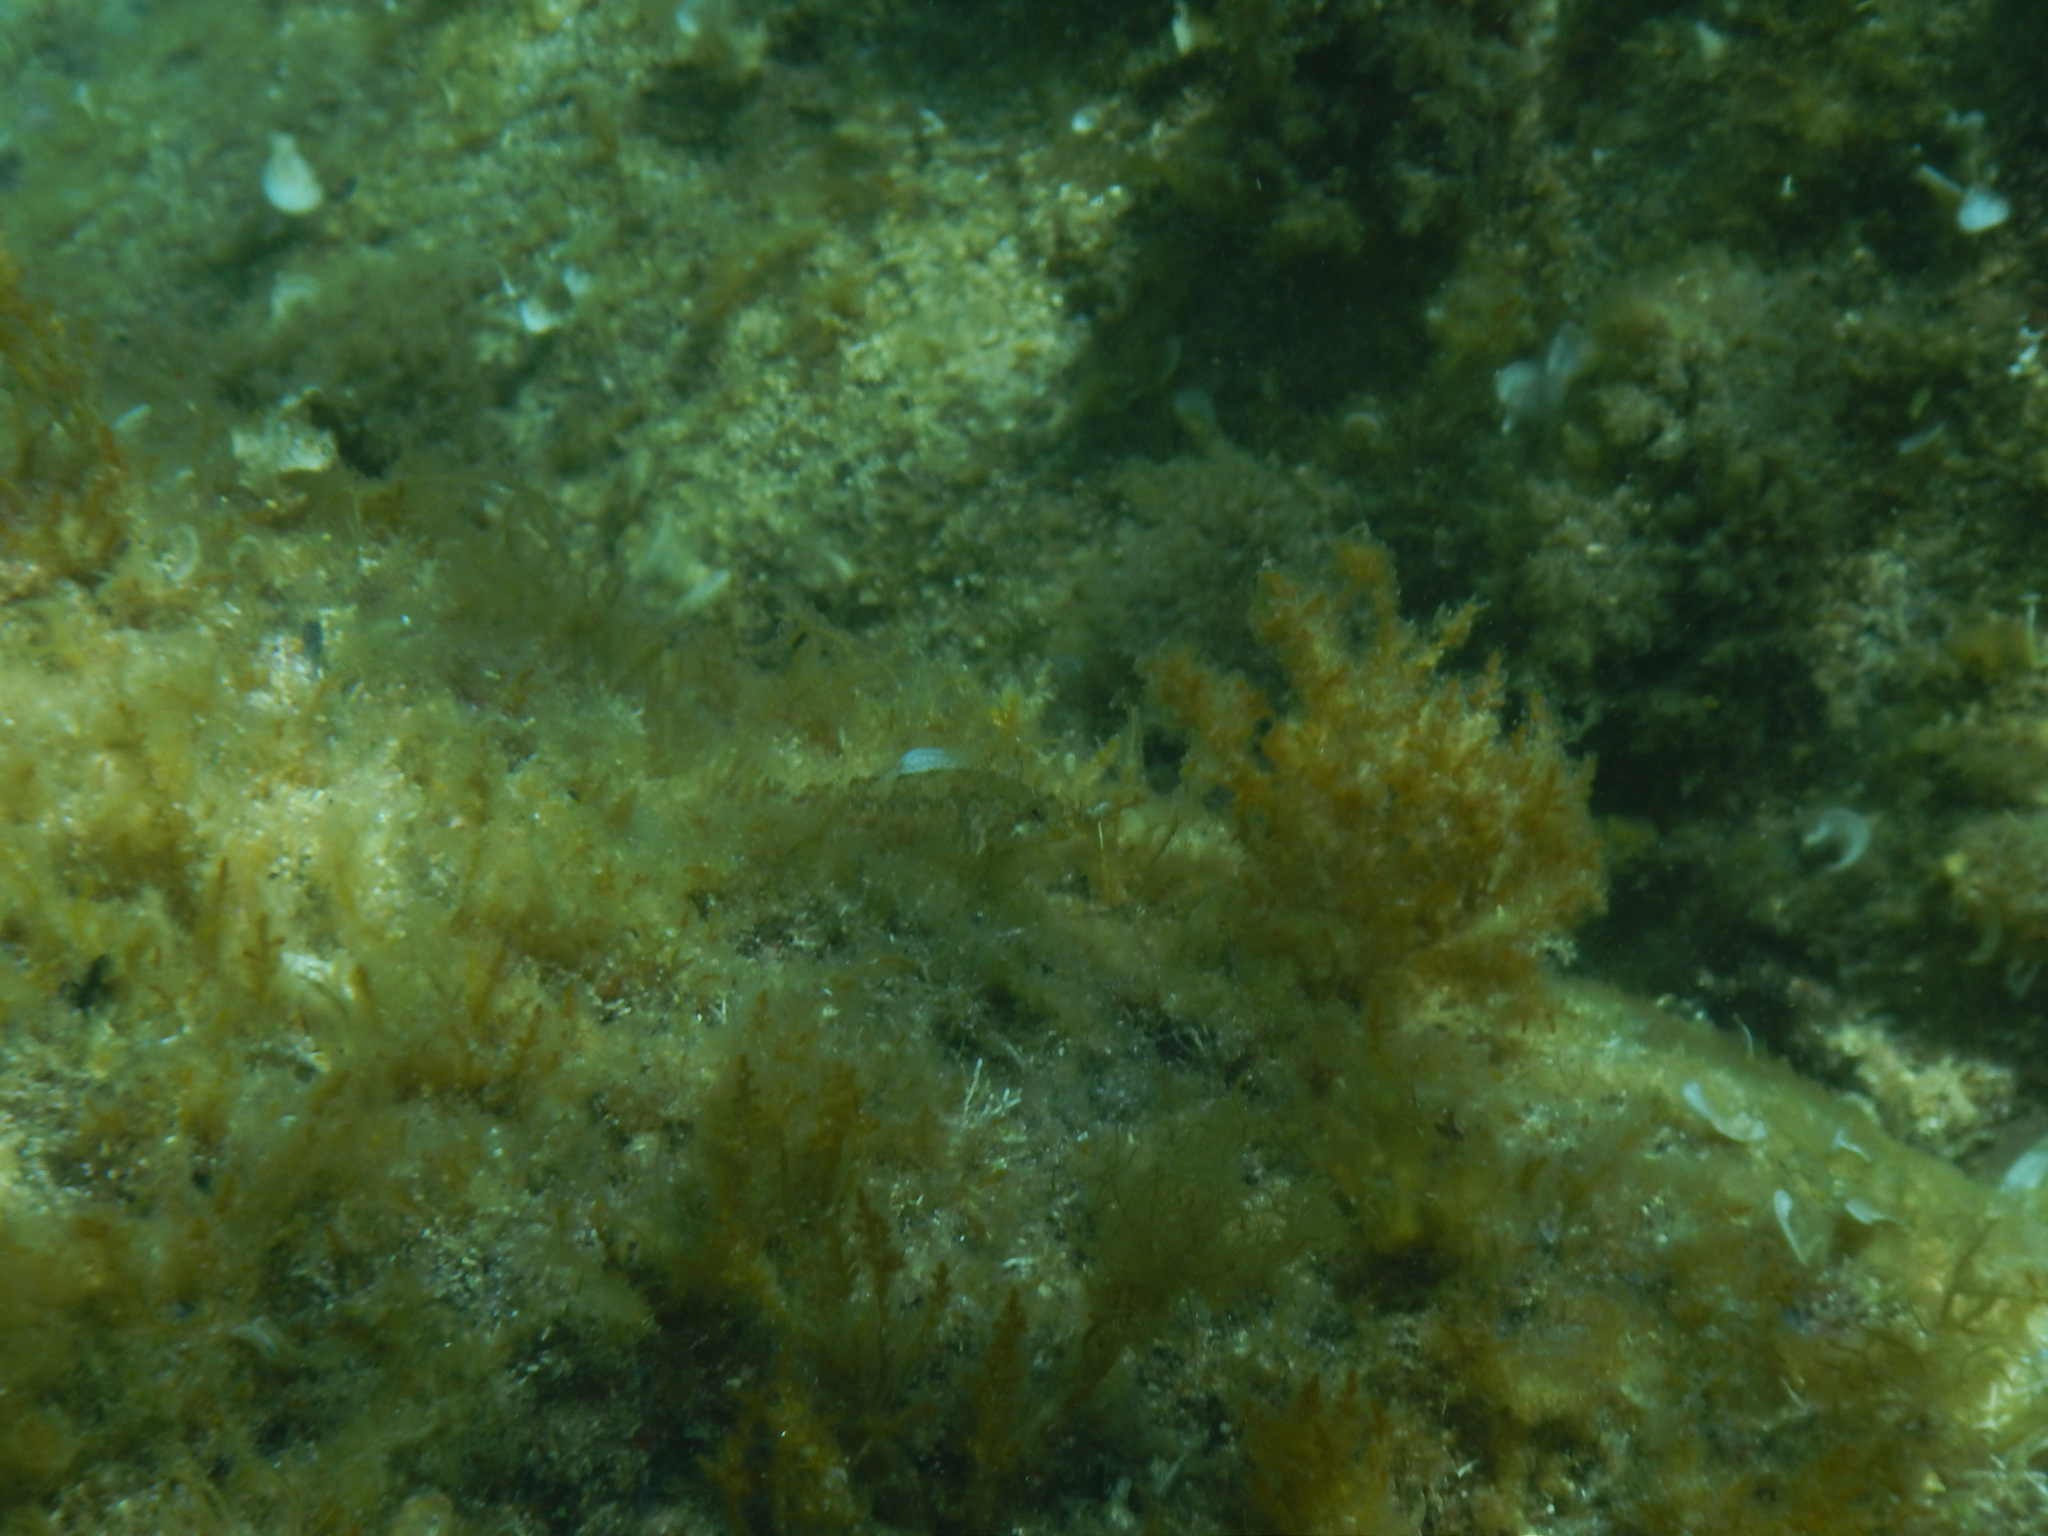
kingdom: Animalia
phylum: Chordata
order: Perciformes
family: Tripterygiidae
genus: Tripterygion
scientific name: Tripterygion tripteronotum
